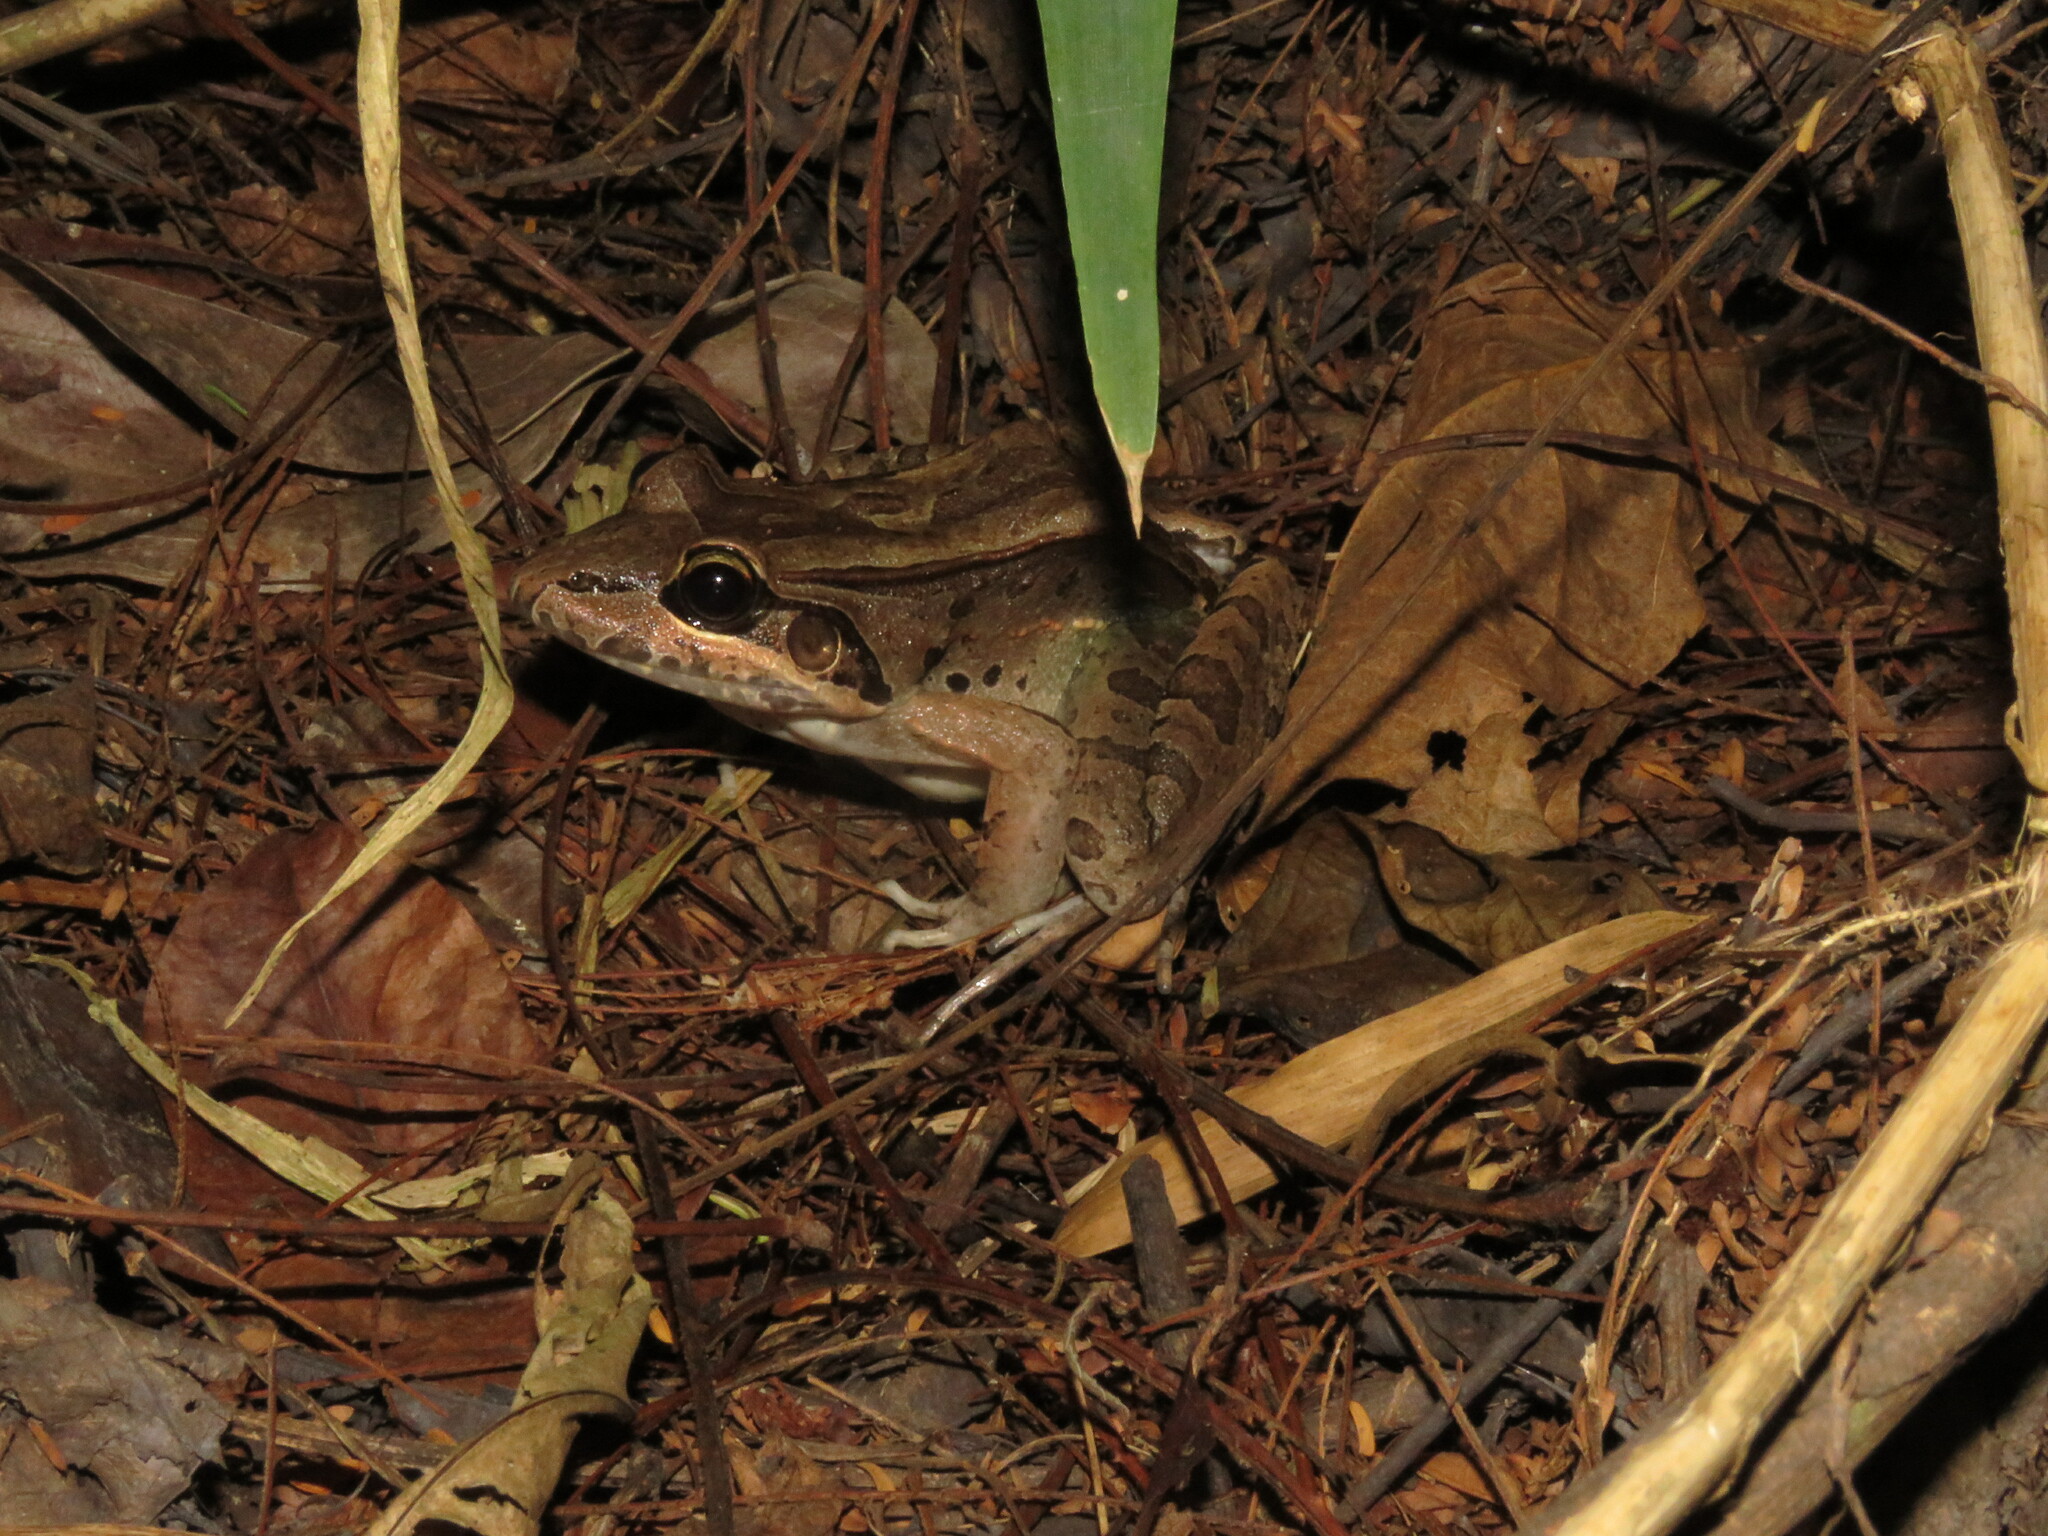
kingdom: Animalia
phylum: Chordata
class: Amphibia
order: Anura
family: Leptodactylidae
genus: Leptodactylus
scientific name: Leptodactylus macrosternum
